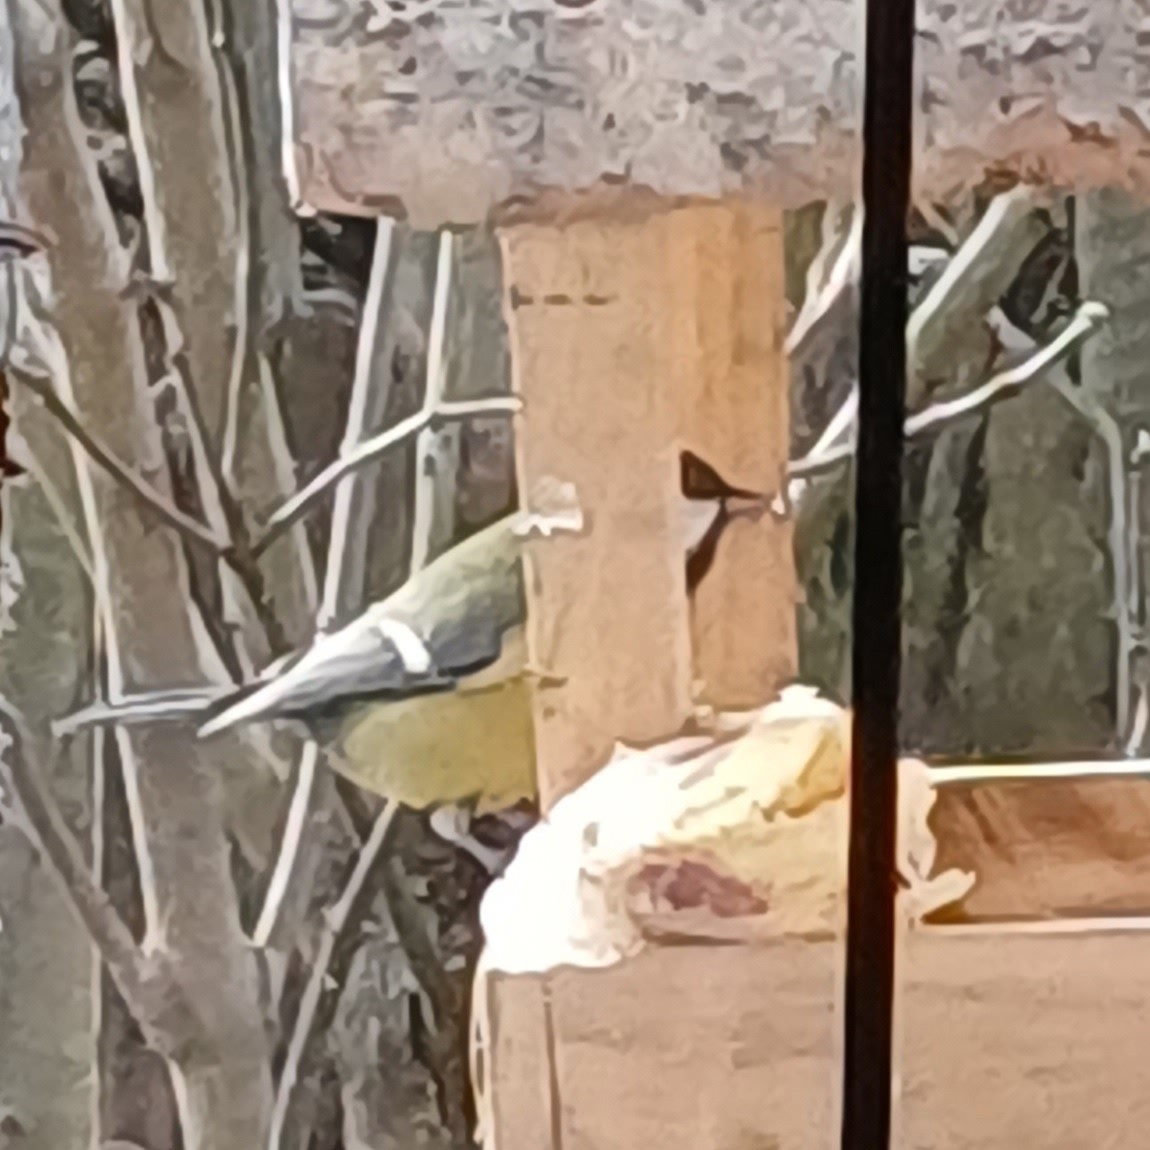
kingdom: Animalia
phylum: Chordata
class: Aves
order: Passeriformes
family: Paridae
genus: Parus
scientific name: Parus major
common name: Great tit
